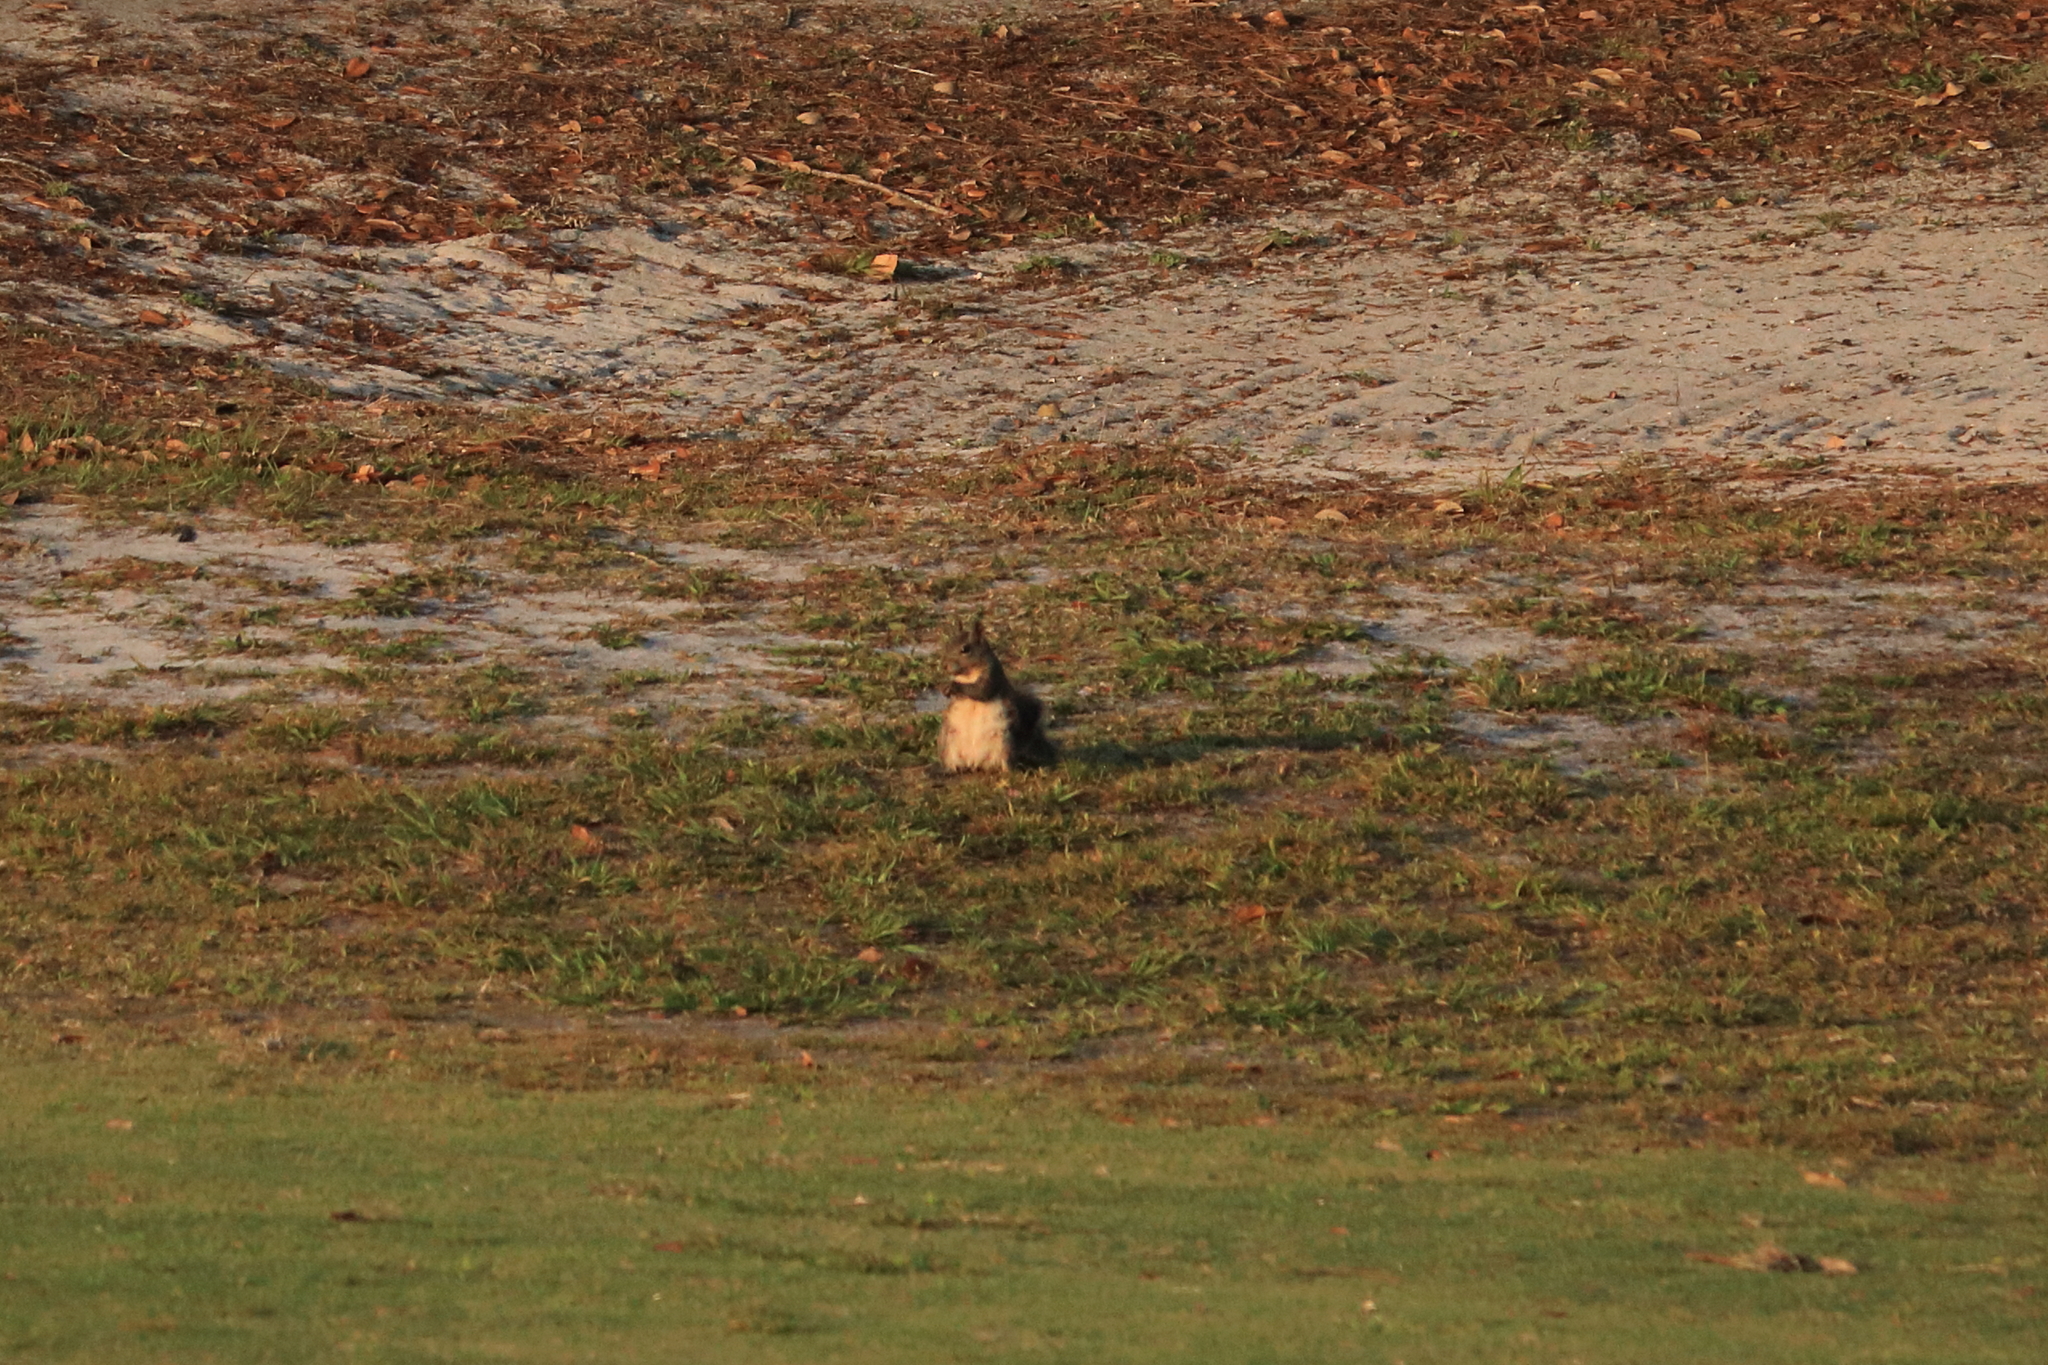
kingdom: Animalia
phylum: Chordata
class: Mammalia
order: Rodentia
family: Sciuridae
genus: Sciurus
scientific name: Sciurus carolinensis
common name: Eastern gray squirrel
